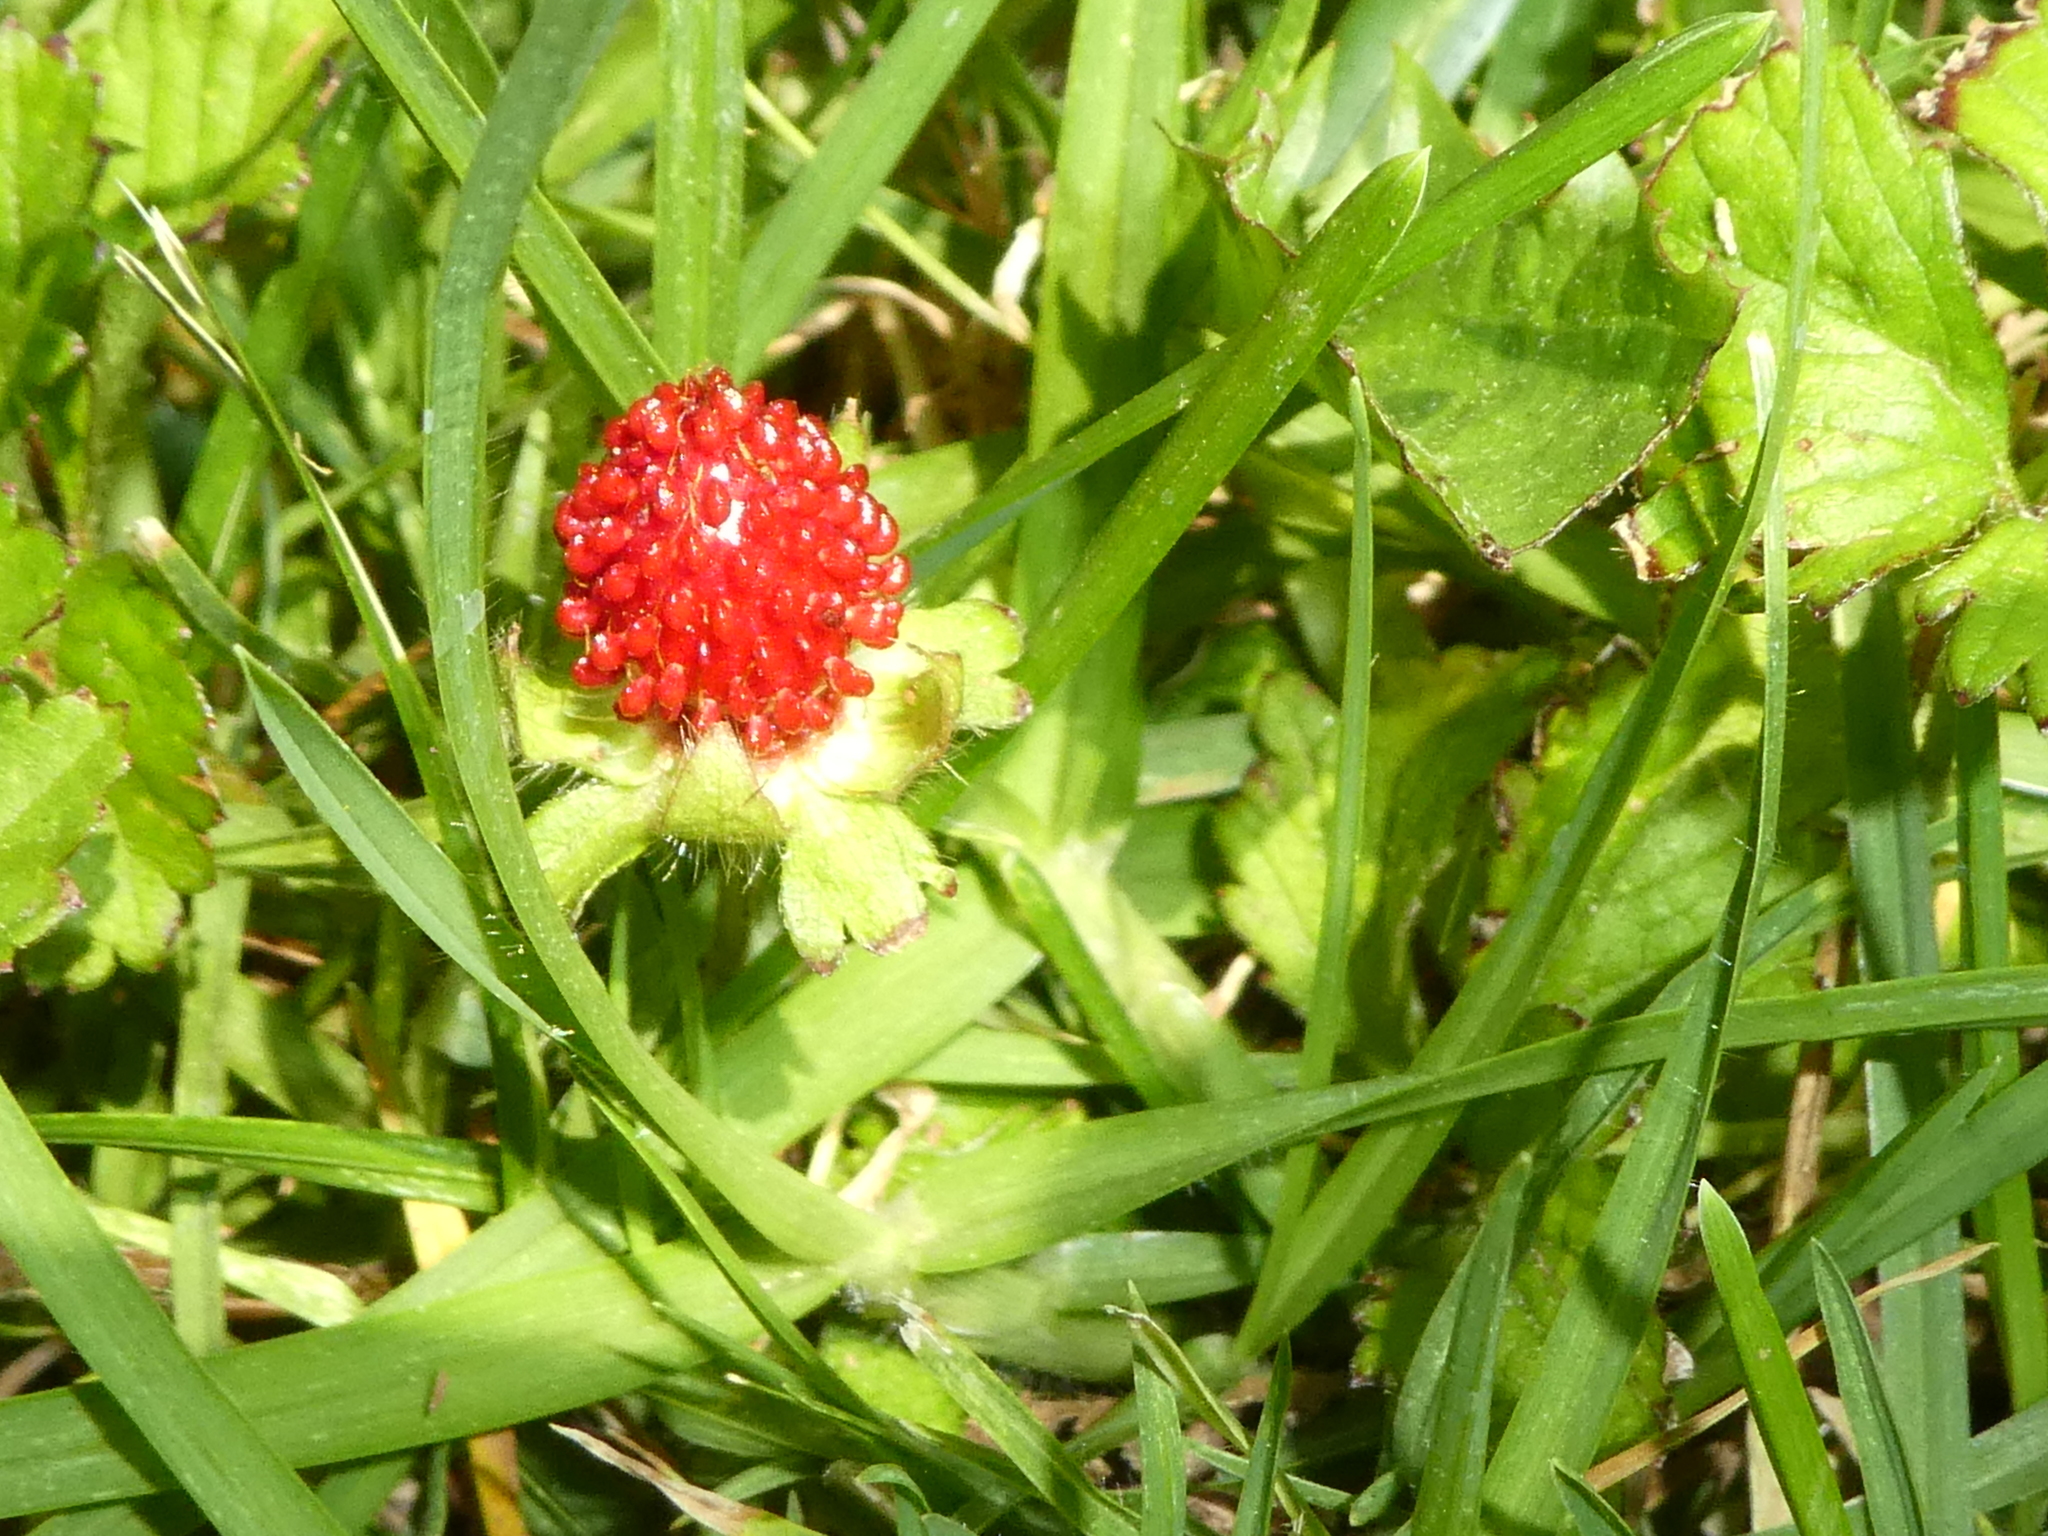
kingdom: Plantae
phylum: Tracheophyta
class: Magnoliopsida
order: Rosales
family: Rosaceae
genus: Potentilla
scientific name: Potentilla indica
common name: Yellow-flowered strawberry
